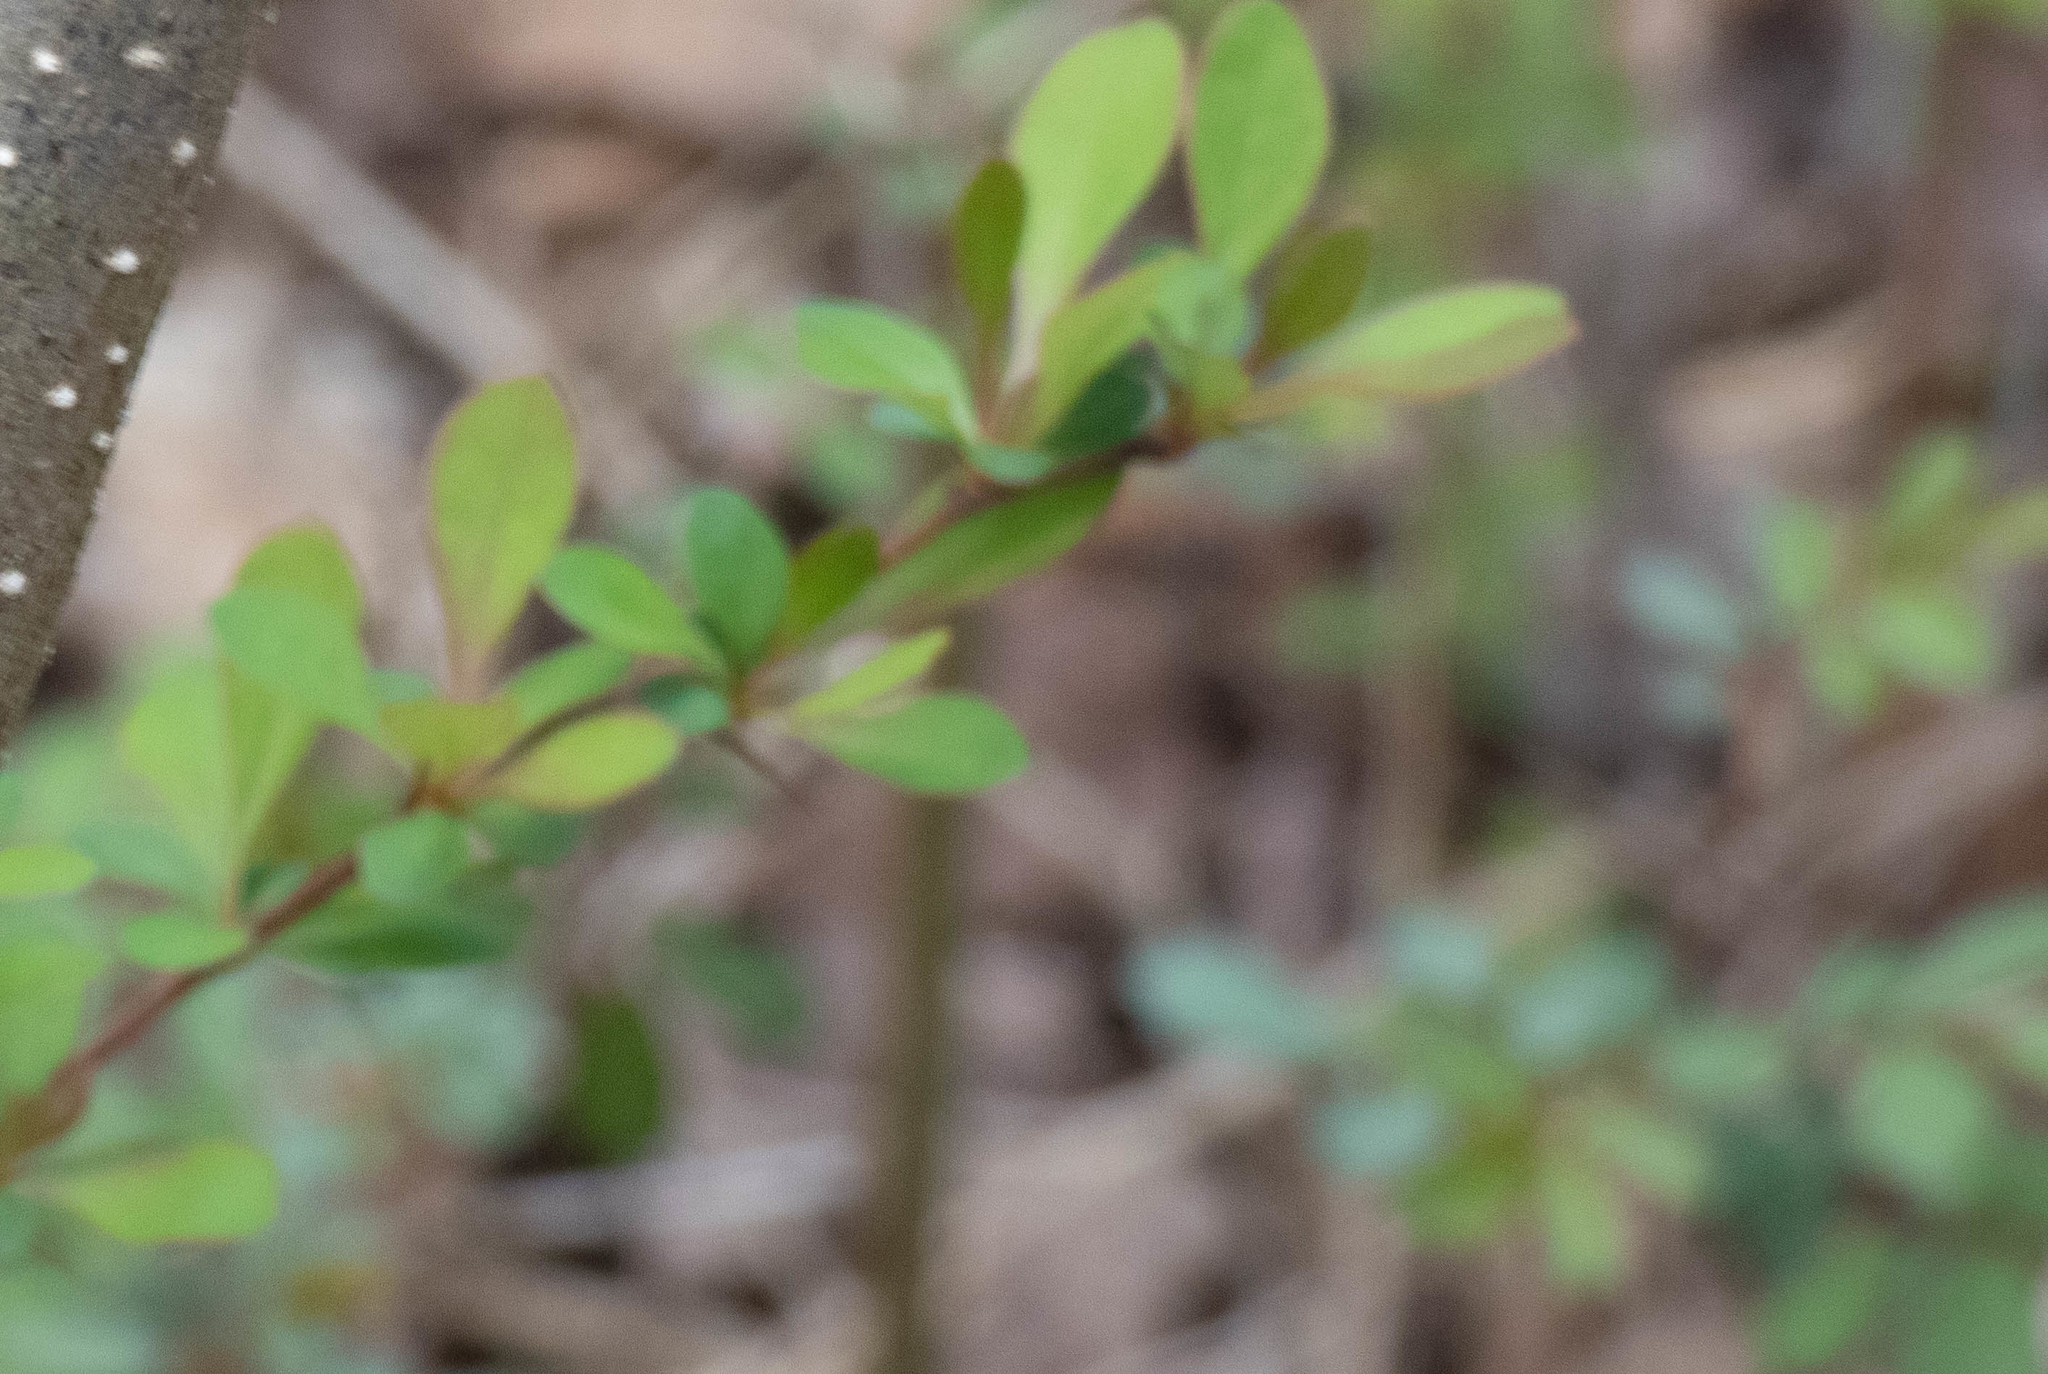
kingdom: Plantae
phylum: Tracheophyta
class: Magnoliopsida
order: Ranunculales
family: Berberidaceae
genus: Berberis
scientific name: Berberis thunbergii
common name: Japanese barberry
